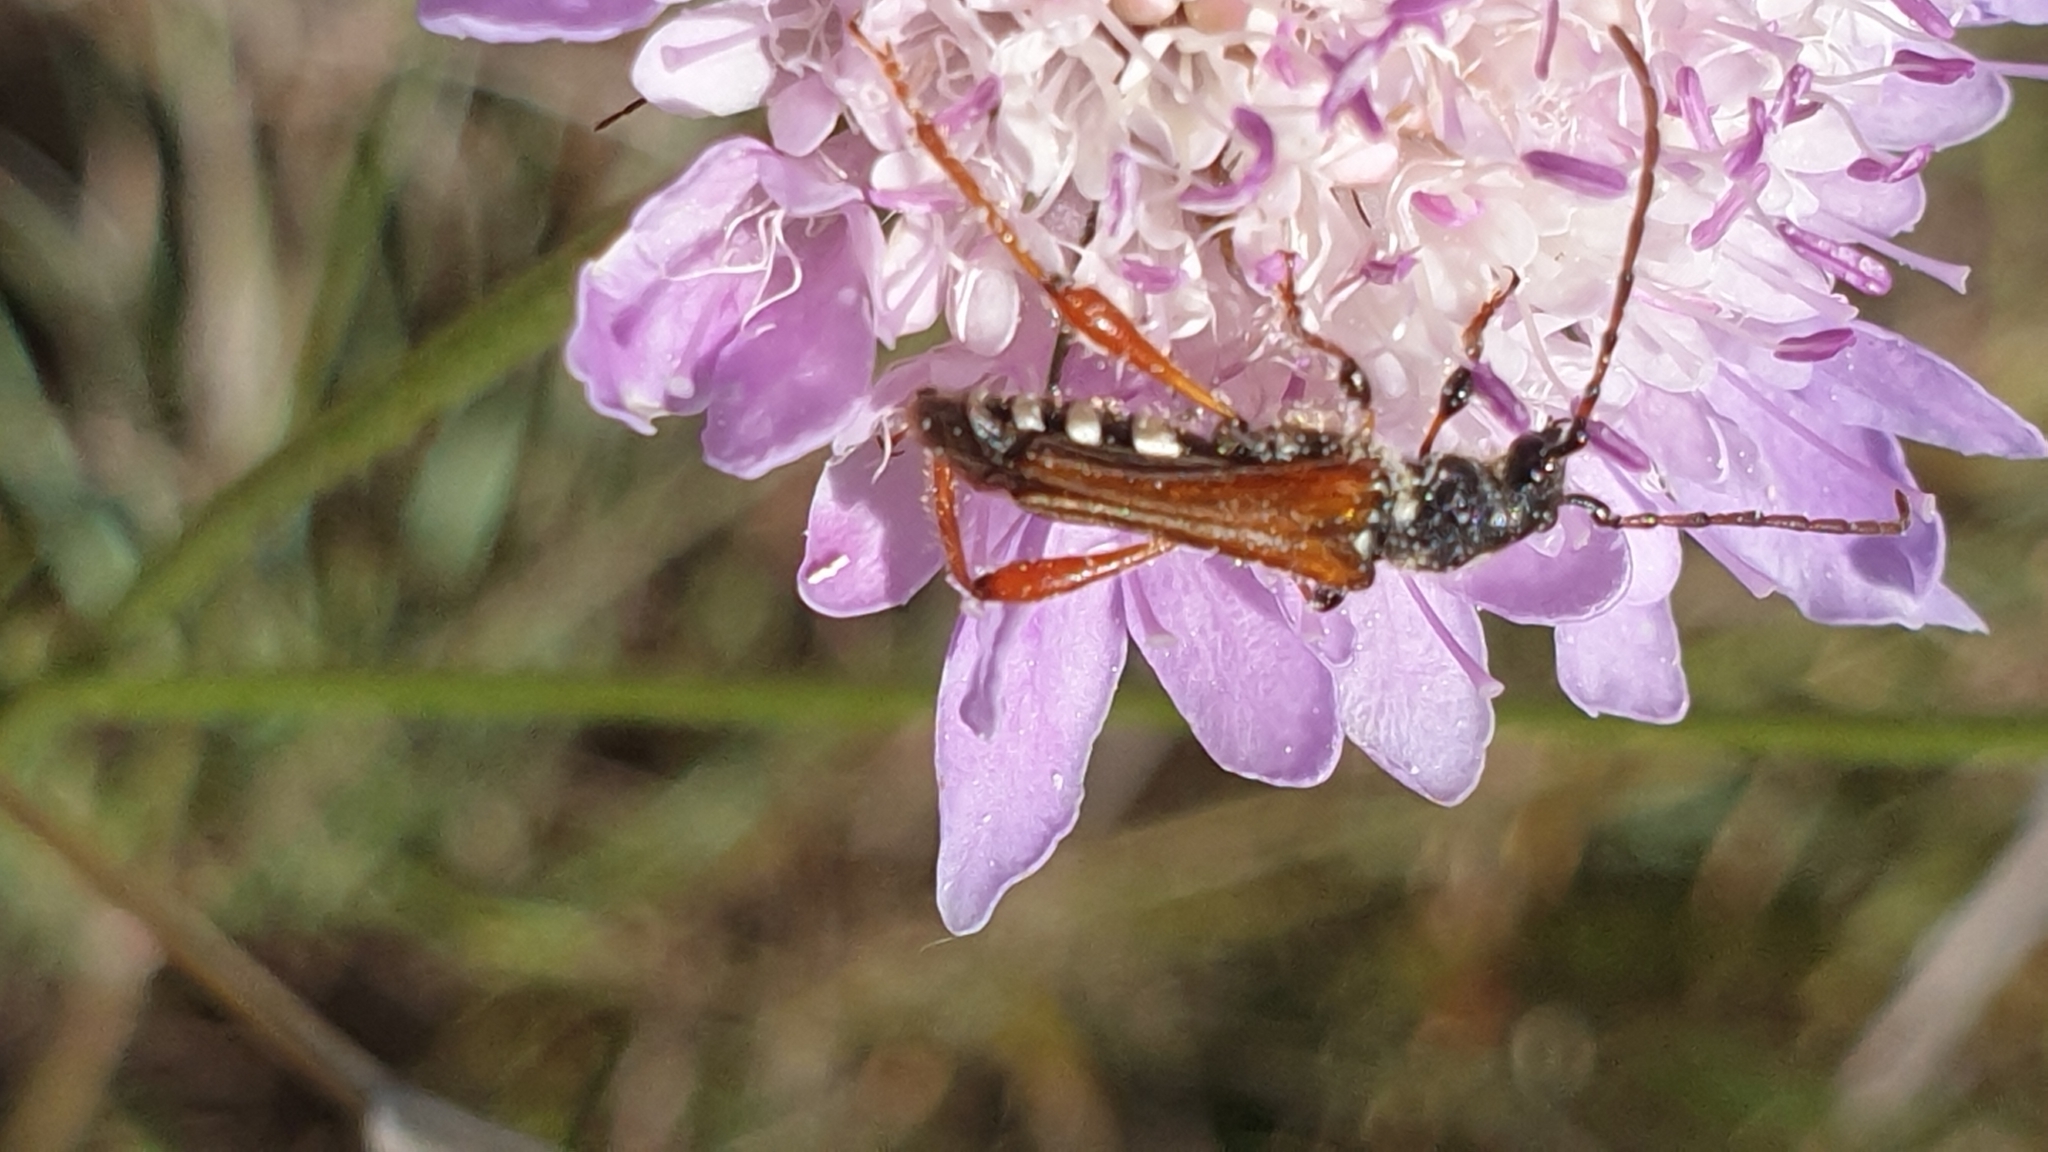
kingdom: Animalia
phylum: Arthropoda
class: Insecta
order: Coleoptera
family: Cerambycidae
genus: Stenopterus
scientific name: Stenopterus rufus
